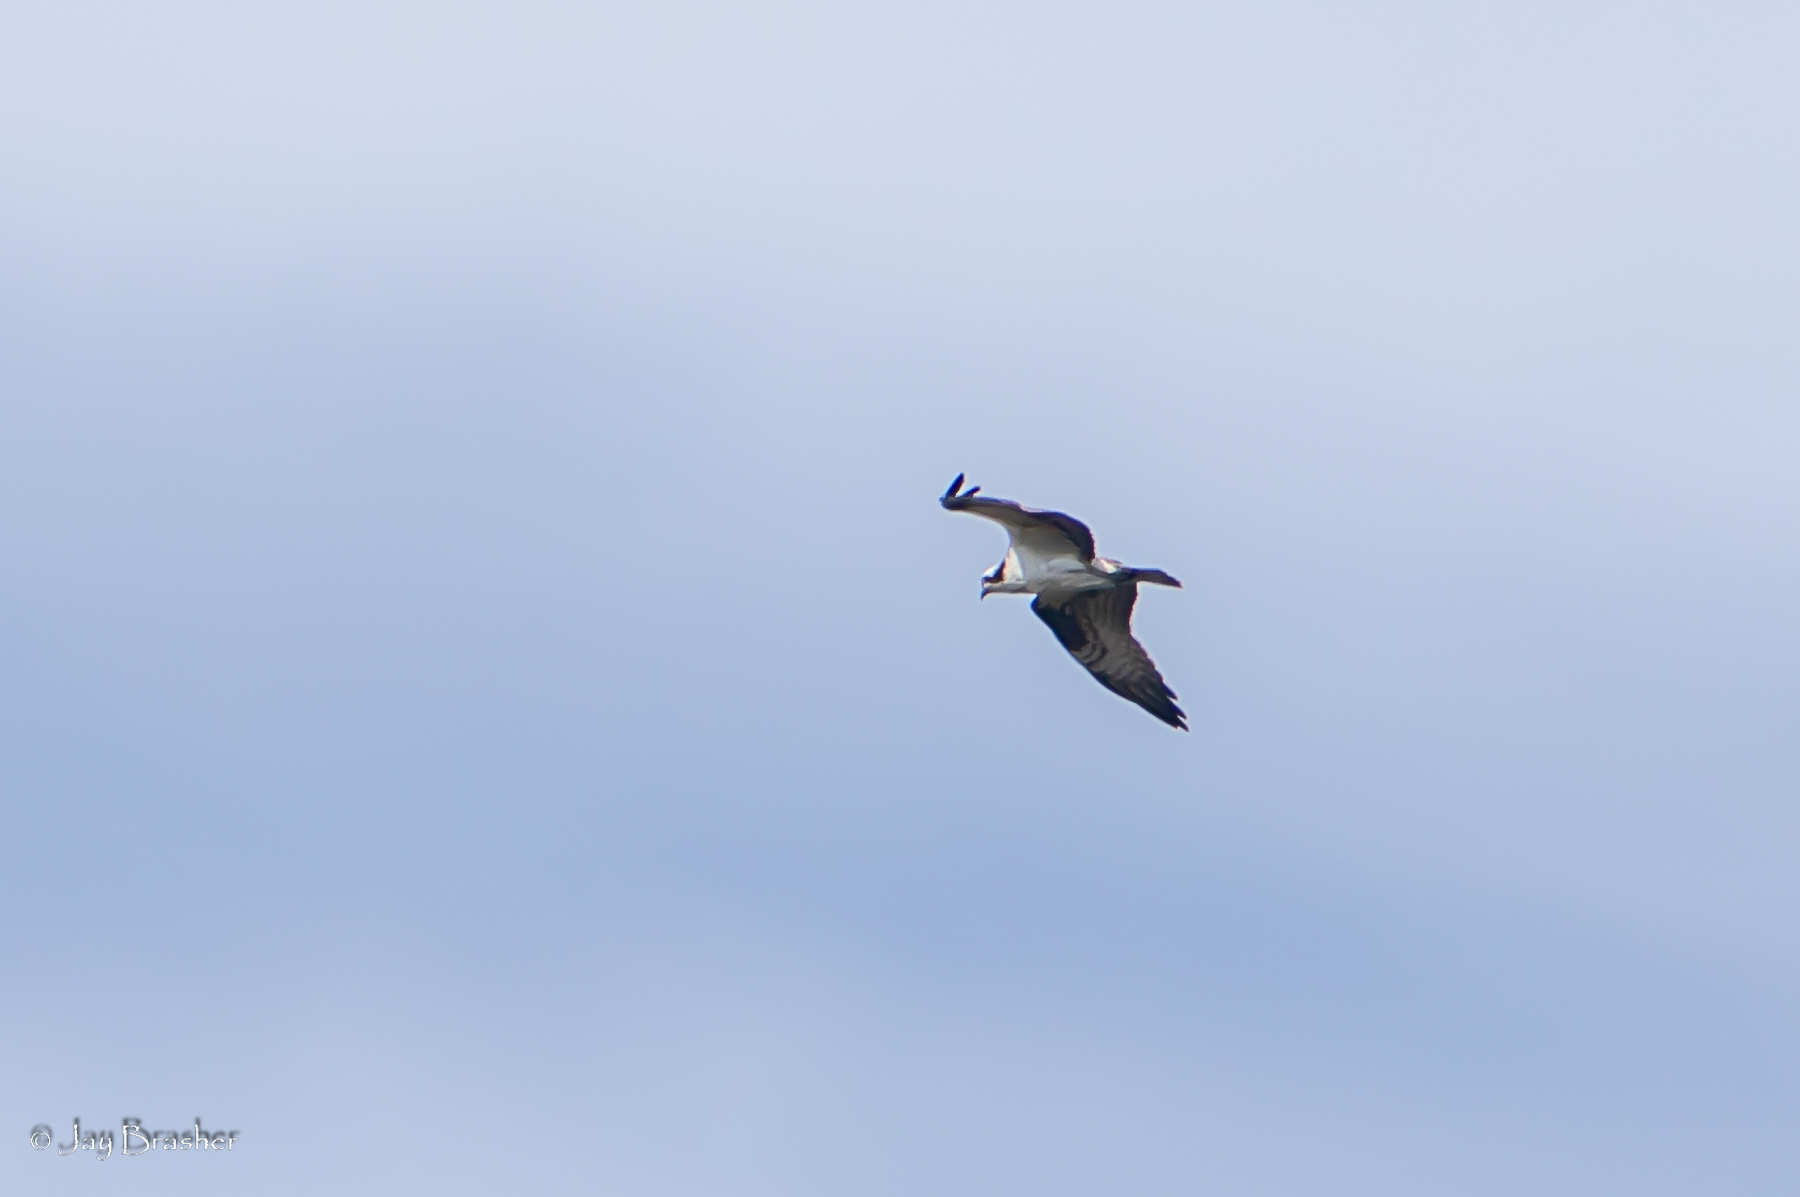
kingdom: Animalia
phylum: Chordata
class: Aves
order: Accipitriformes
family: Pandionidae
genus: Pandion
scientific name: Pandion haliaetus
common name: Osprey
